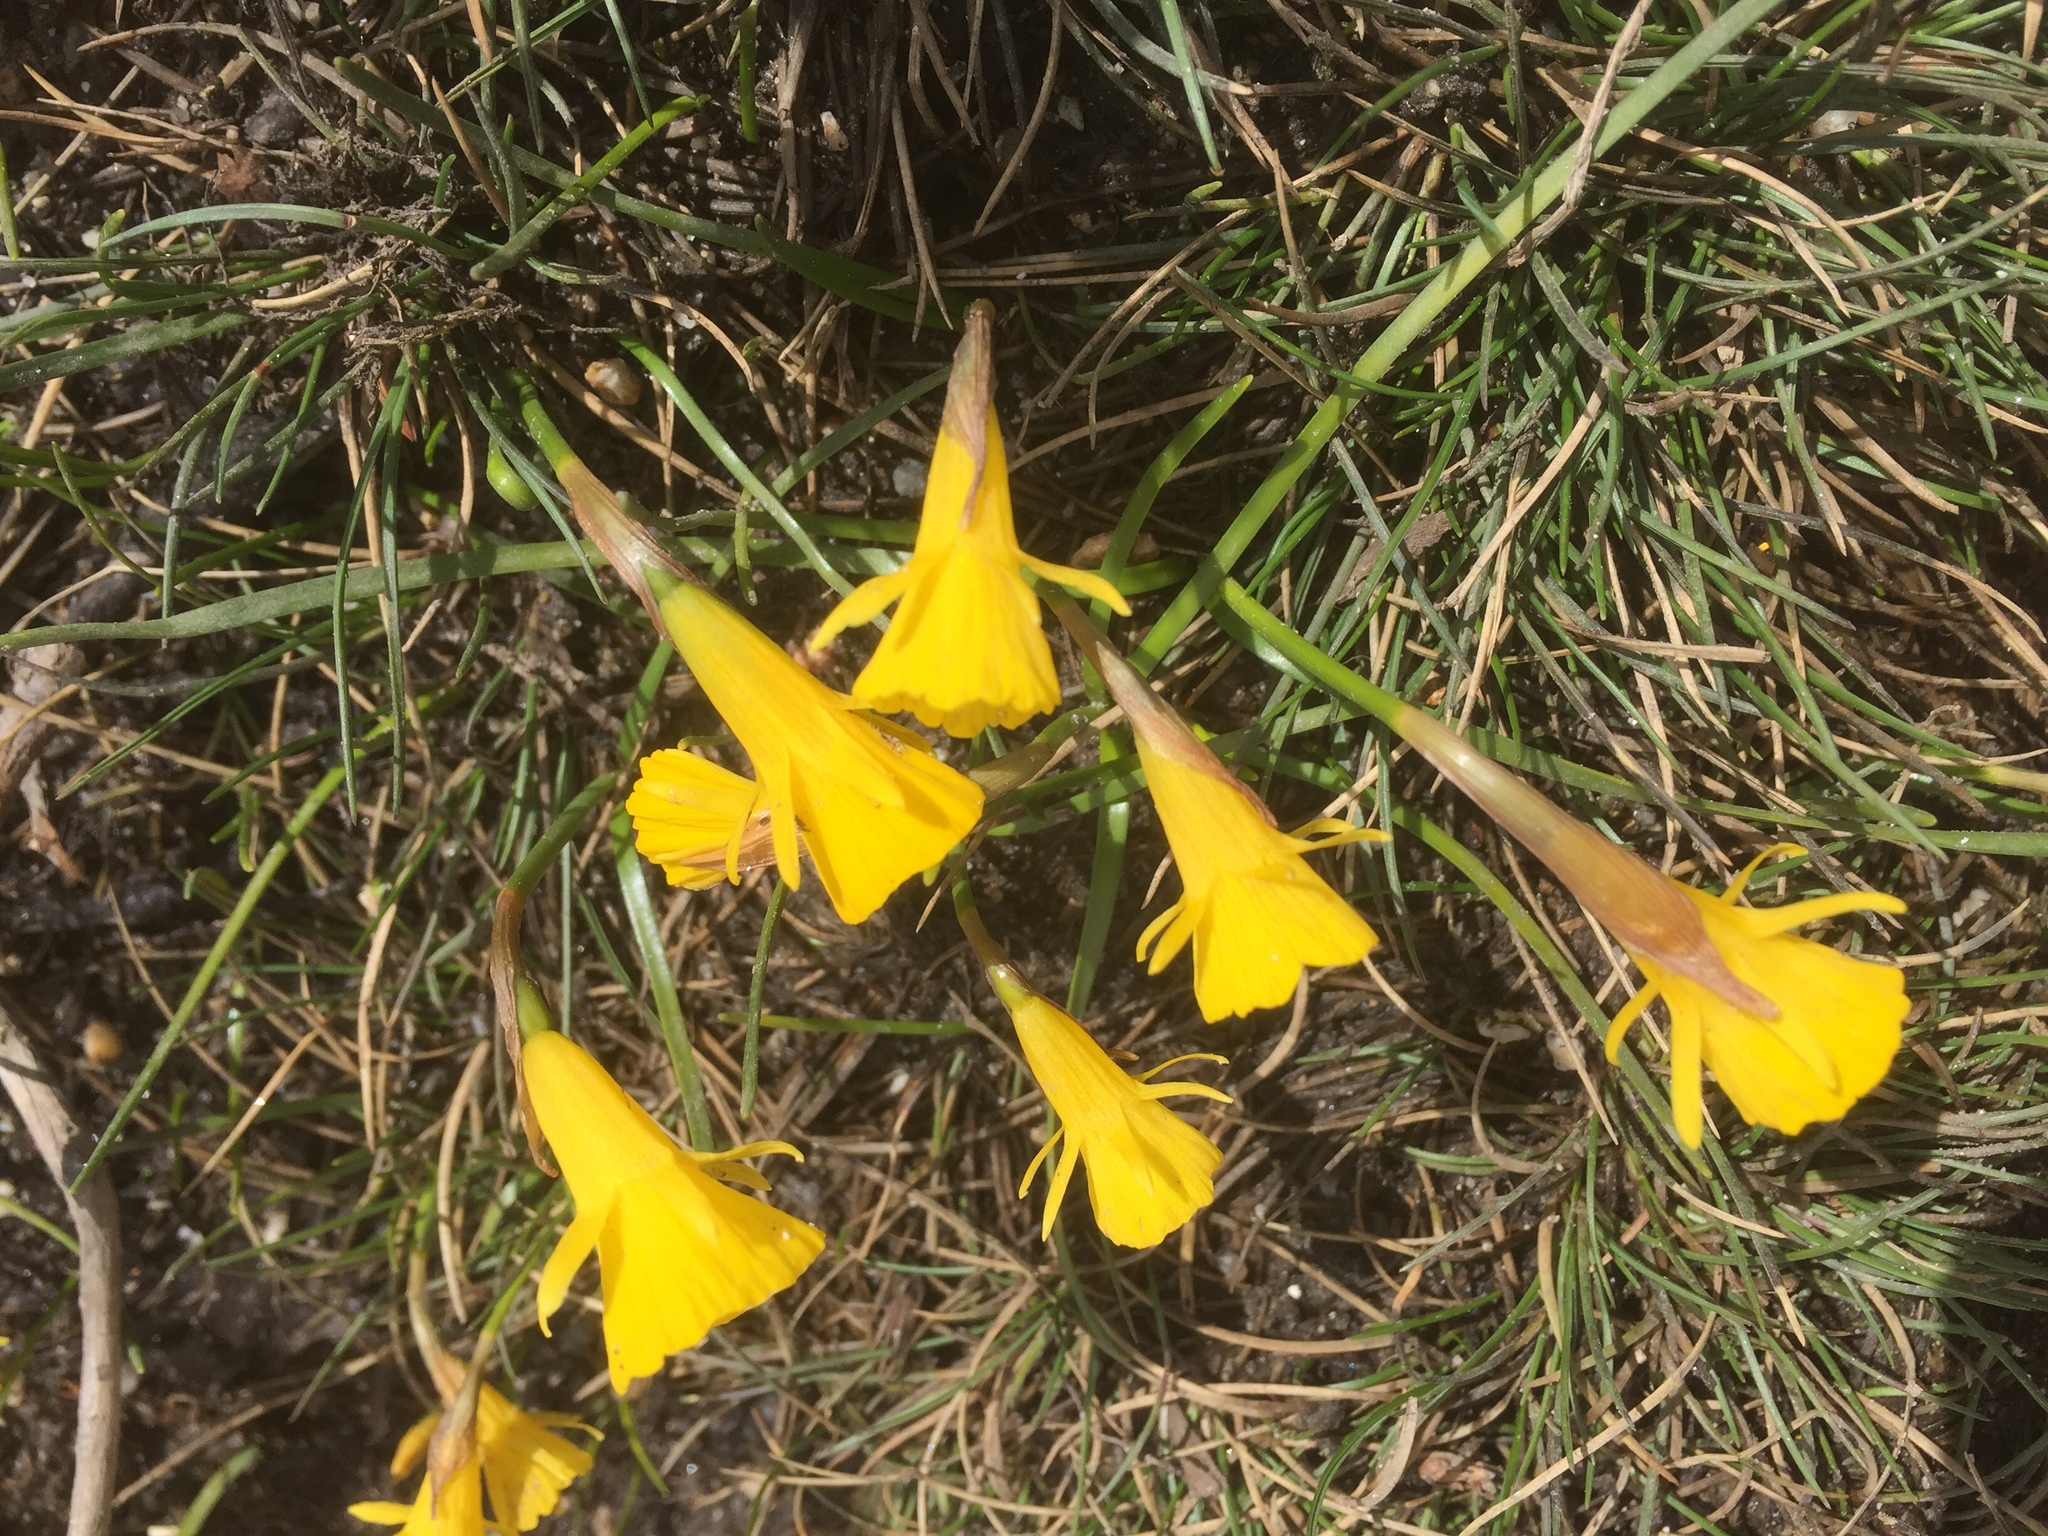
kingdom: Plantae
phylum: Tracheophyta
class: Liliopsida
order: Asparagales
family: Amaryllidaceae
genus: Narcissus
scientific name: Narcissus bulbocodium
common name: Hoop-petticoat daffodil
